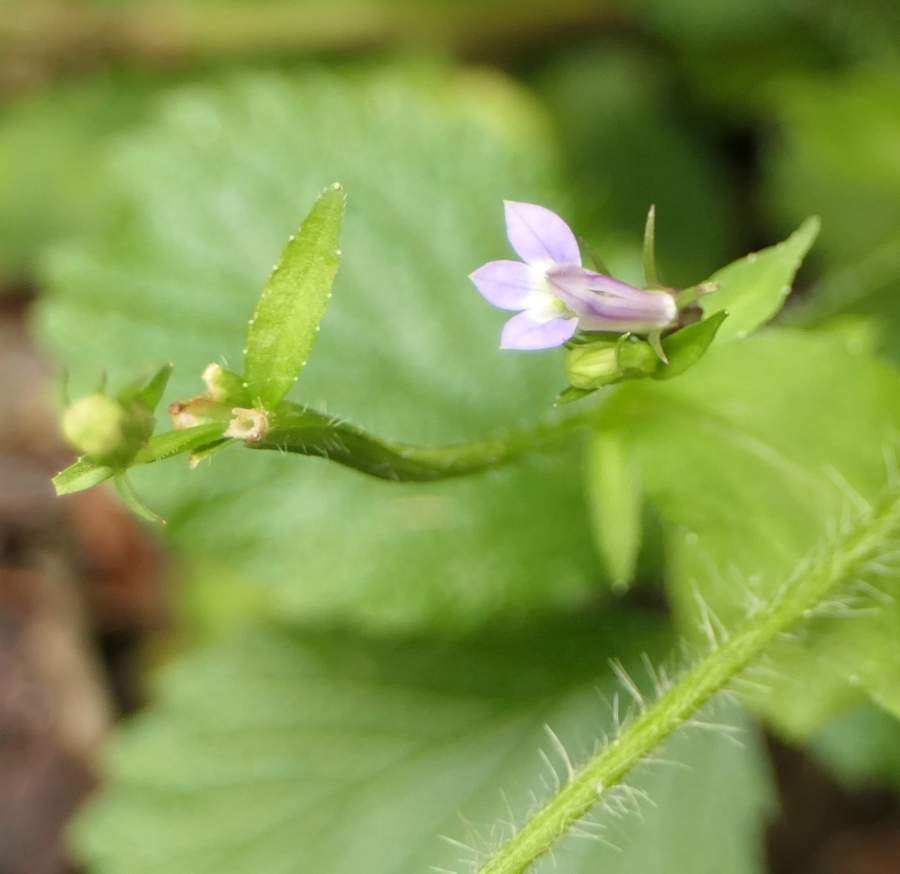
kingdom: Plantae
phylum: Tracheophyta
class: Magnoliopsida
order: Asterales
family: Campanulaceae
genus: Lobelia
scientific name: Lobelia inflata
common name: Indian tobacco
